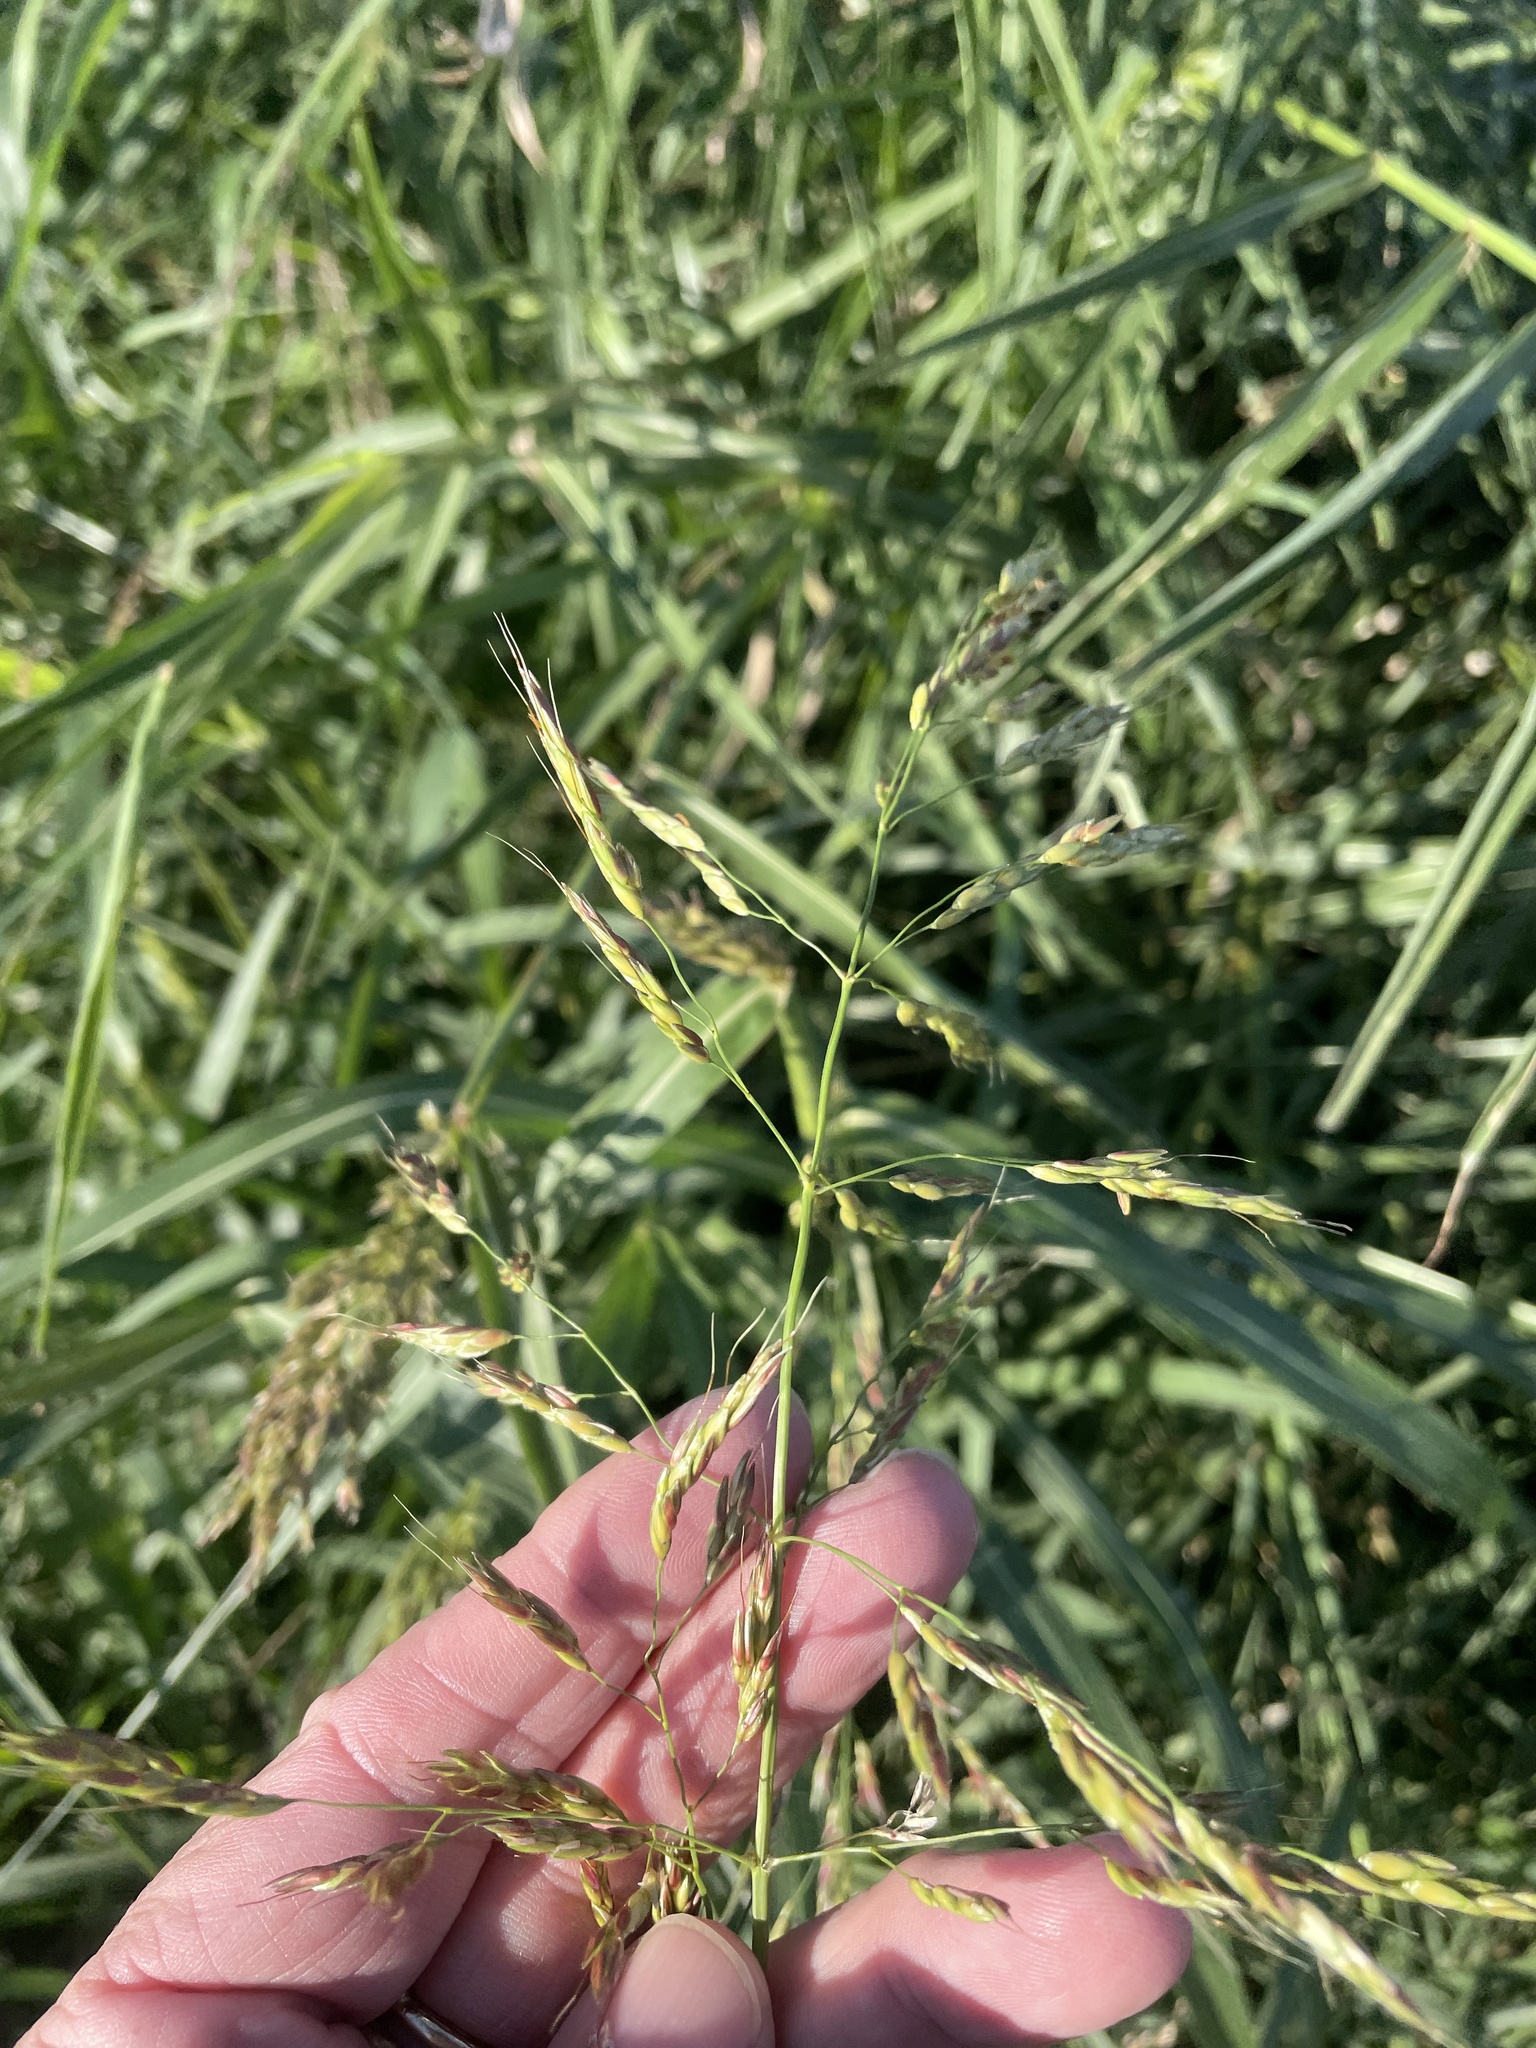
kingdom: Plantae
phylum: Tracheophyta
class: Liliopsida
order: Poales
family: Poaceae
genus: Sorghum
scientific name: Sorghum halepense
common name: Johnson-grass
